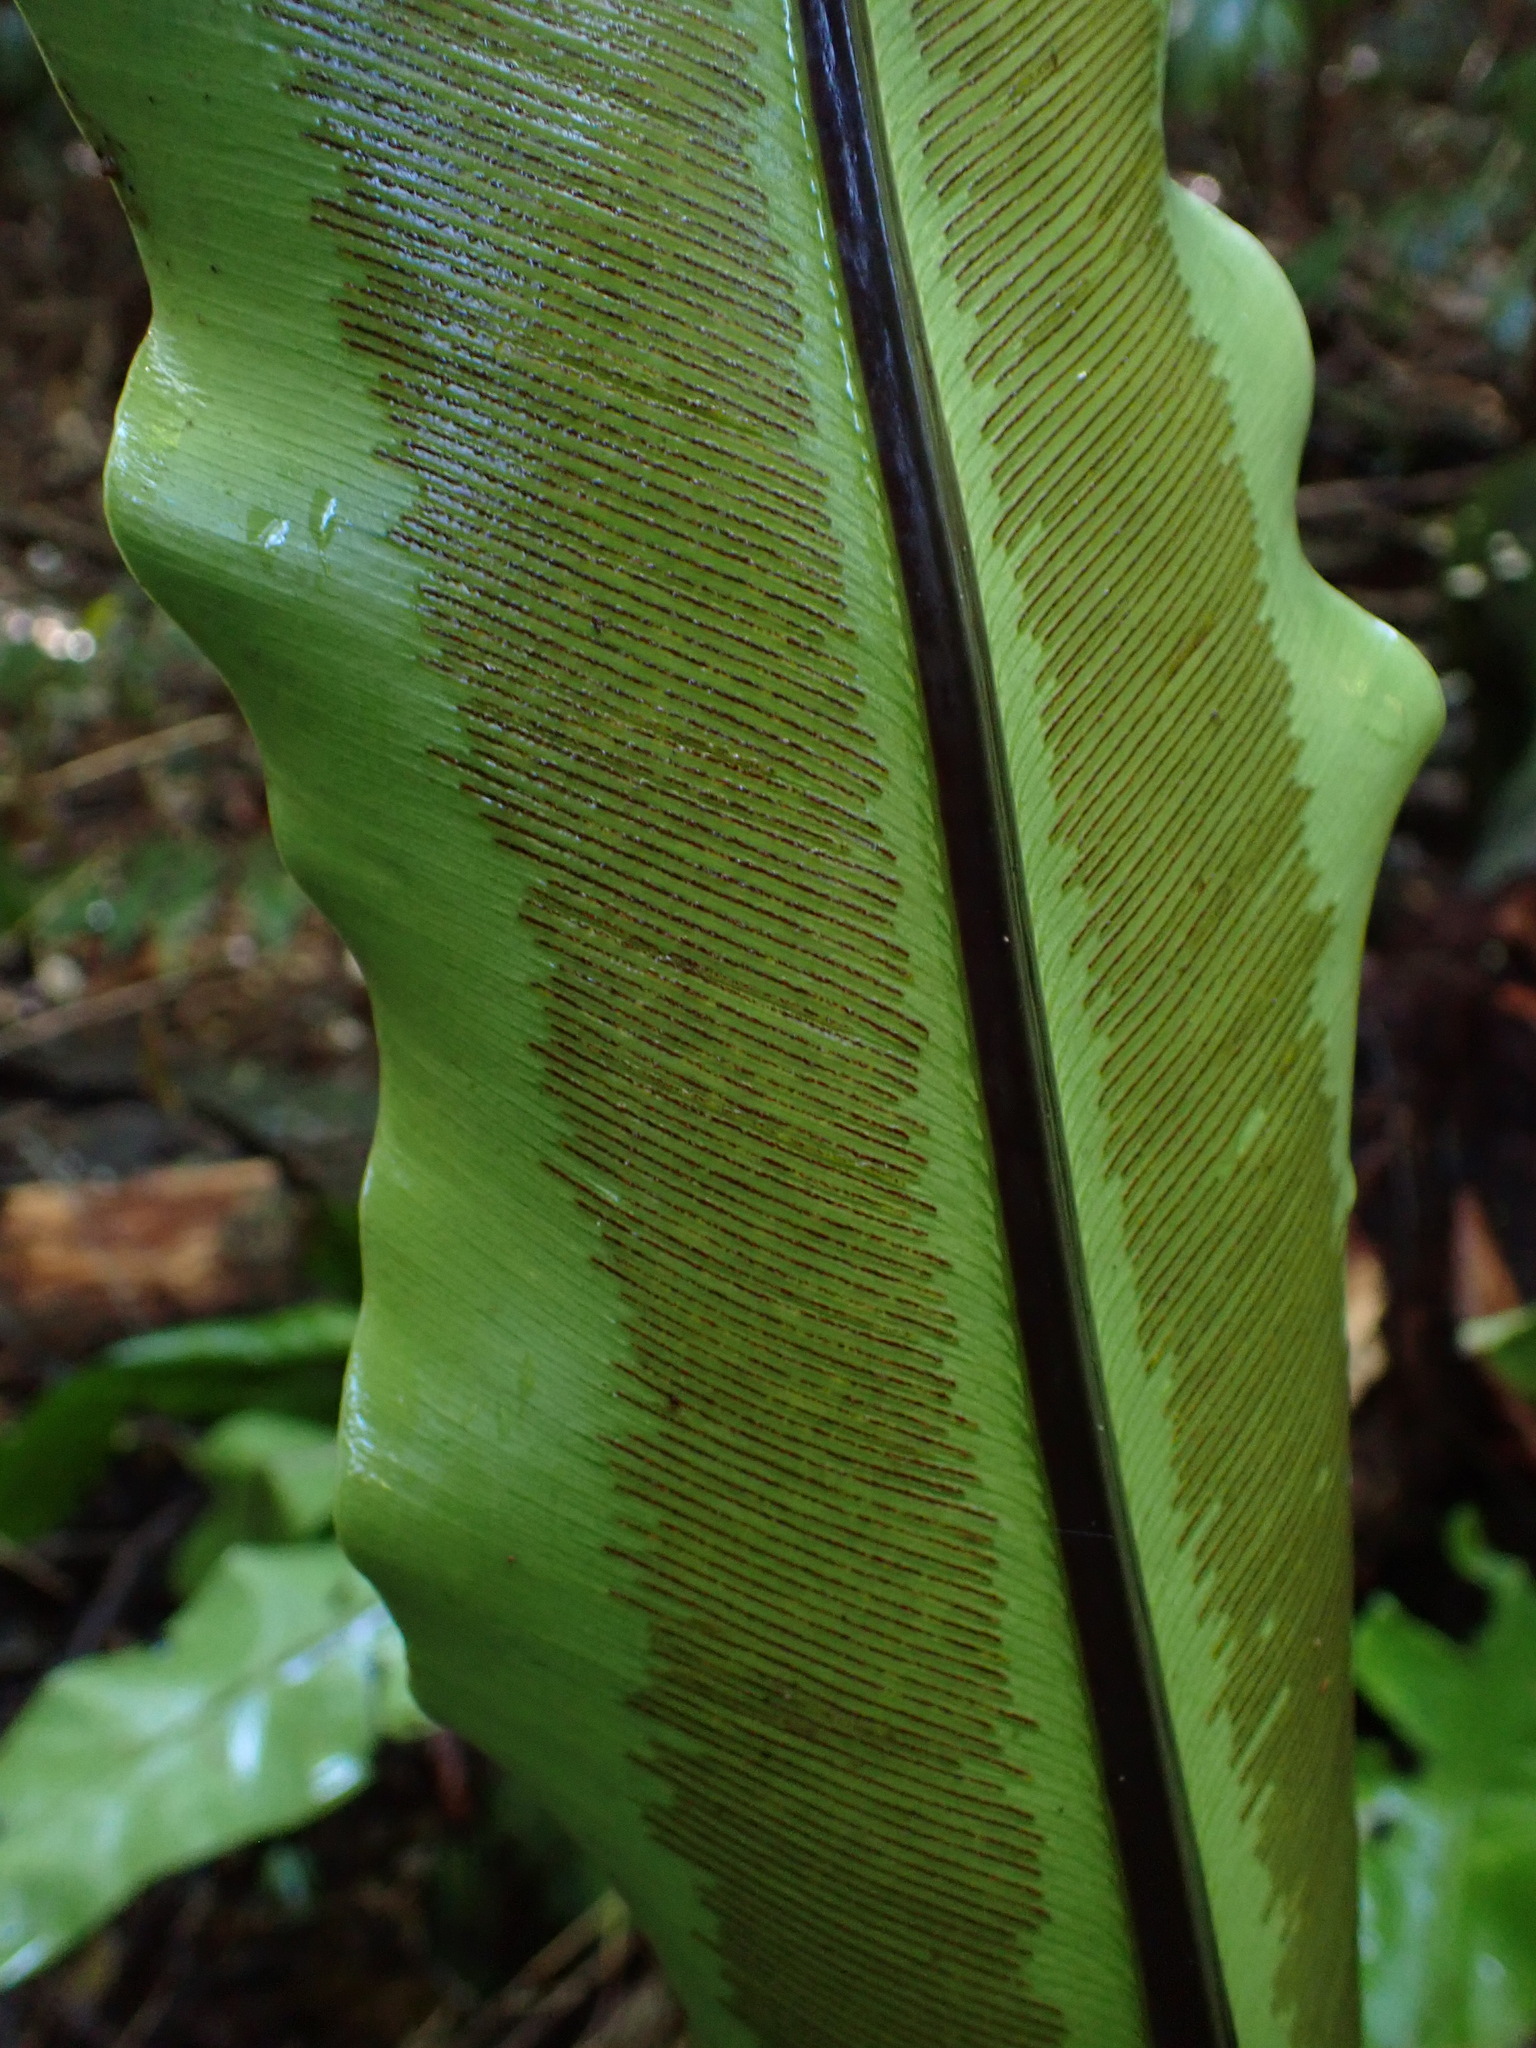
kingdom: Plantae
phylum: Tracheophyta
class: Polypodiopsida
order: Polypodiales
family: Aspleniaceae
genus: Asplenium
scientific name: Asplenium australasicum
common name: Bird's-nest fern
